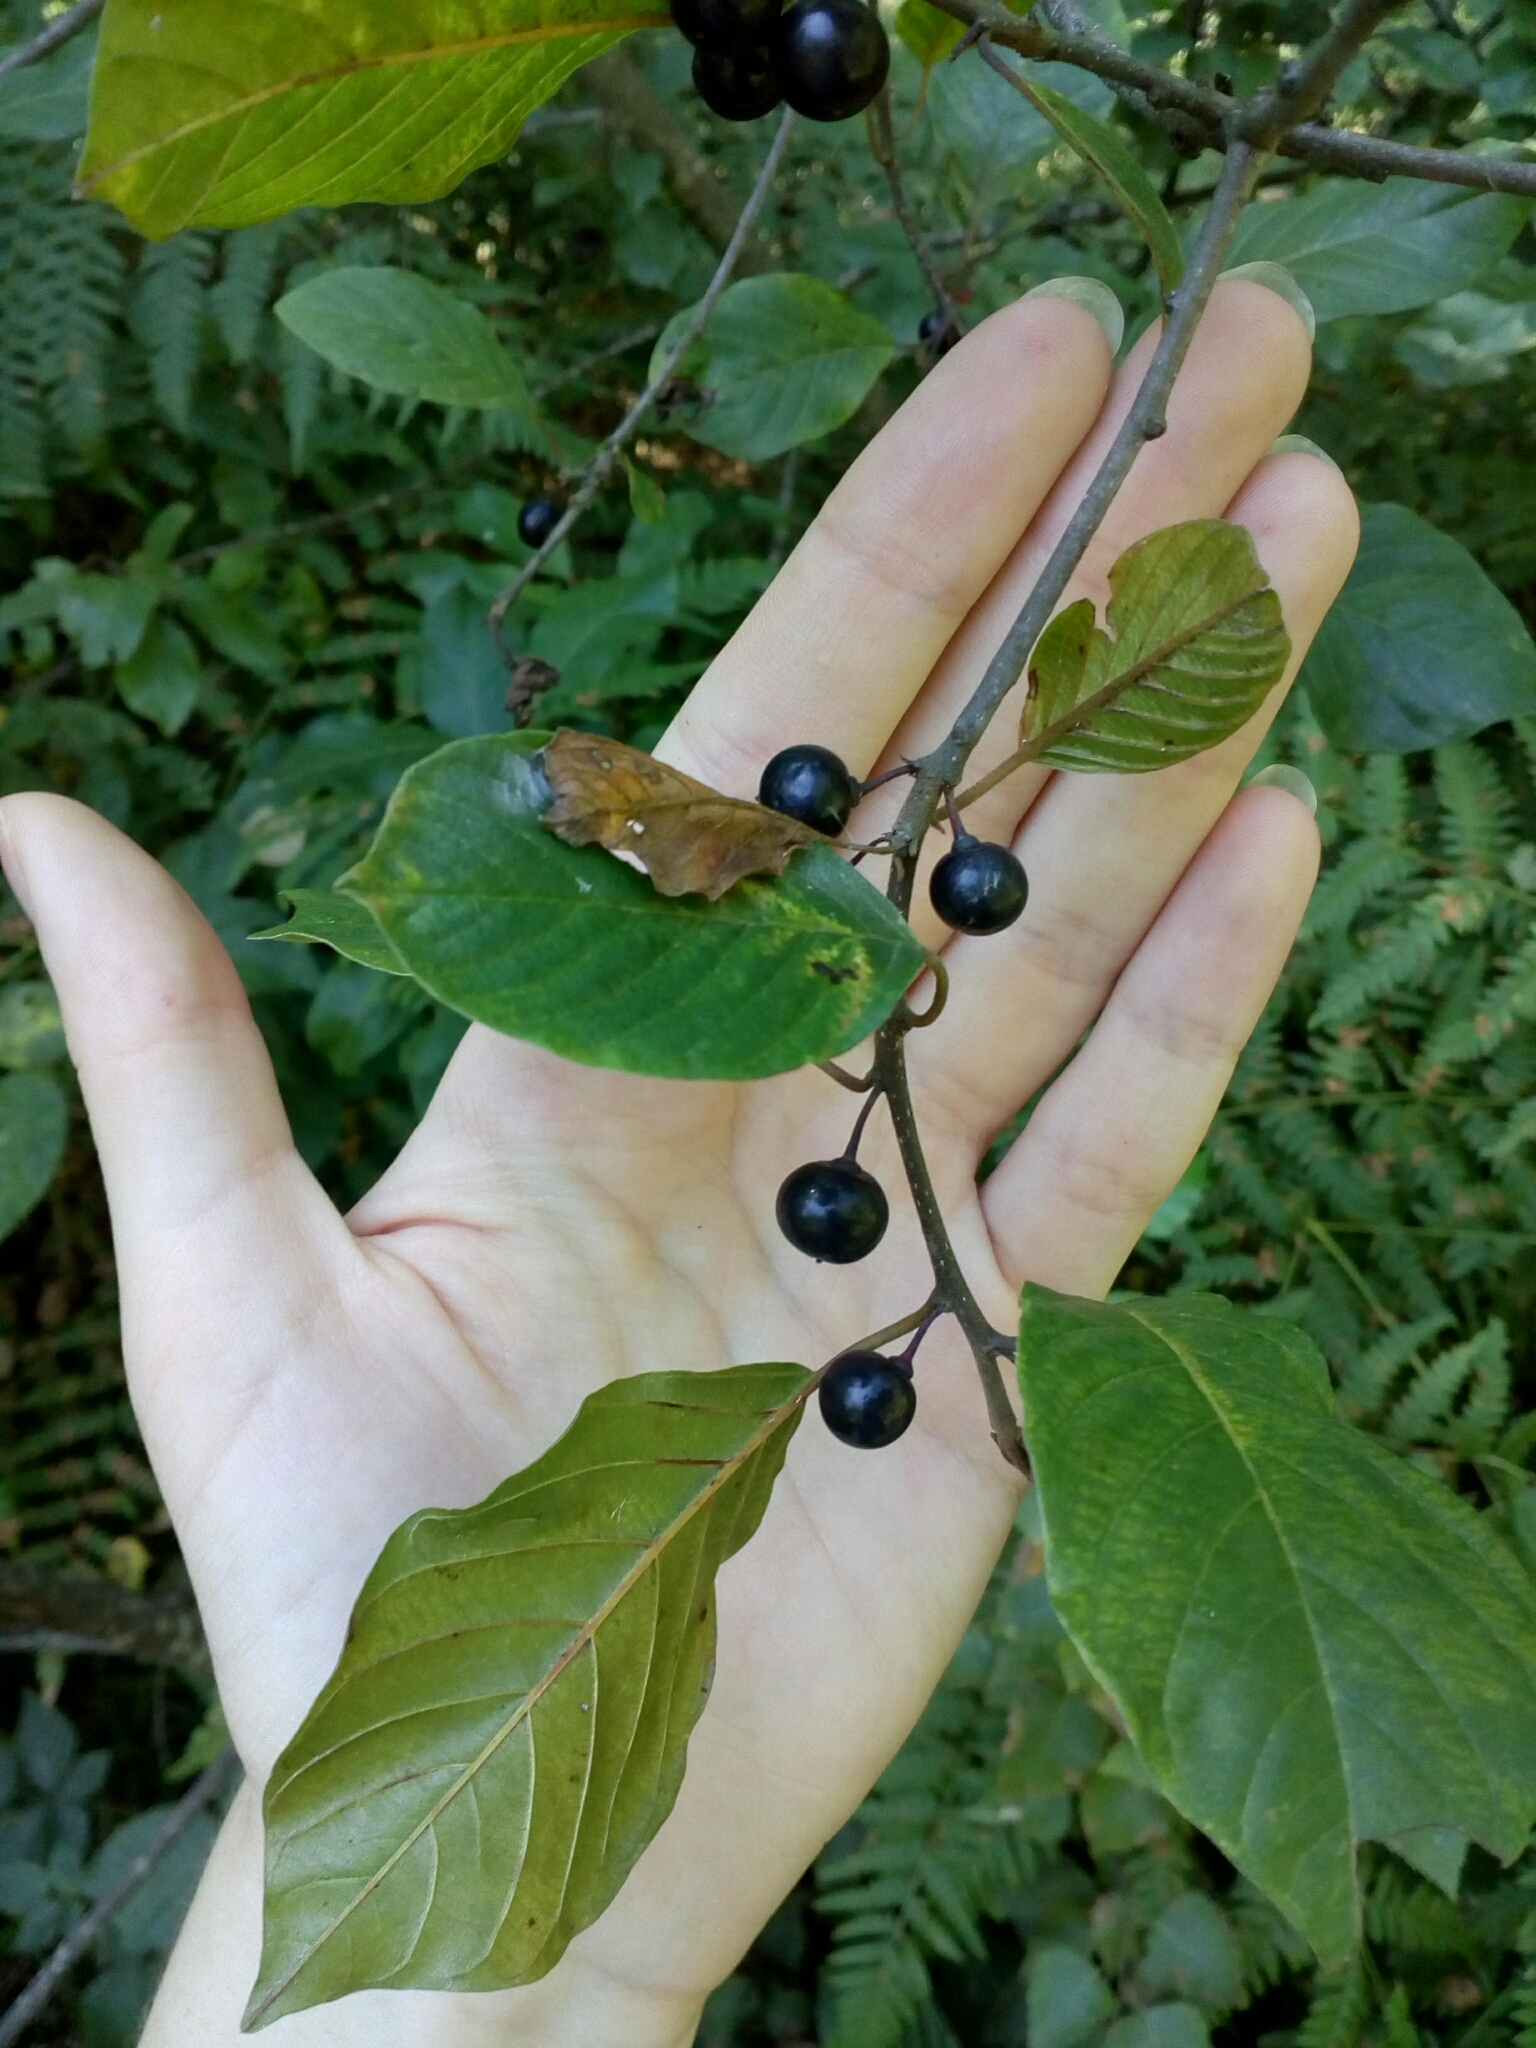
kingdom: Plantae
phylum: Tracheophyta
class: Magnoliopsida
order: Rosales
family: Rhamnaceae
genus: Frangula
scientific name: Frangula alnus
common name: Alder buckthorn
